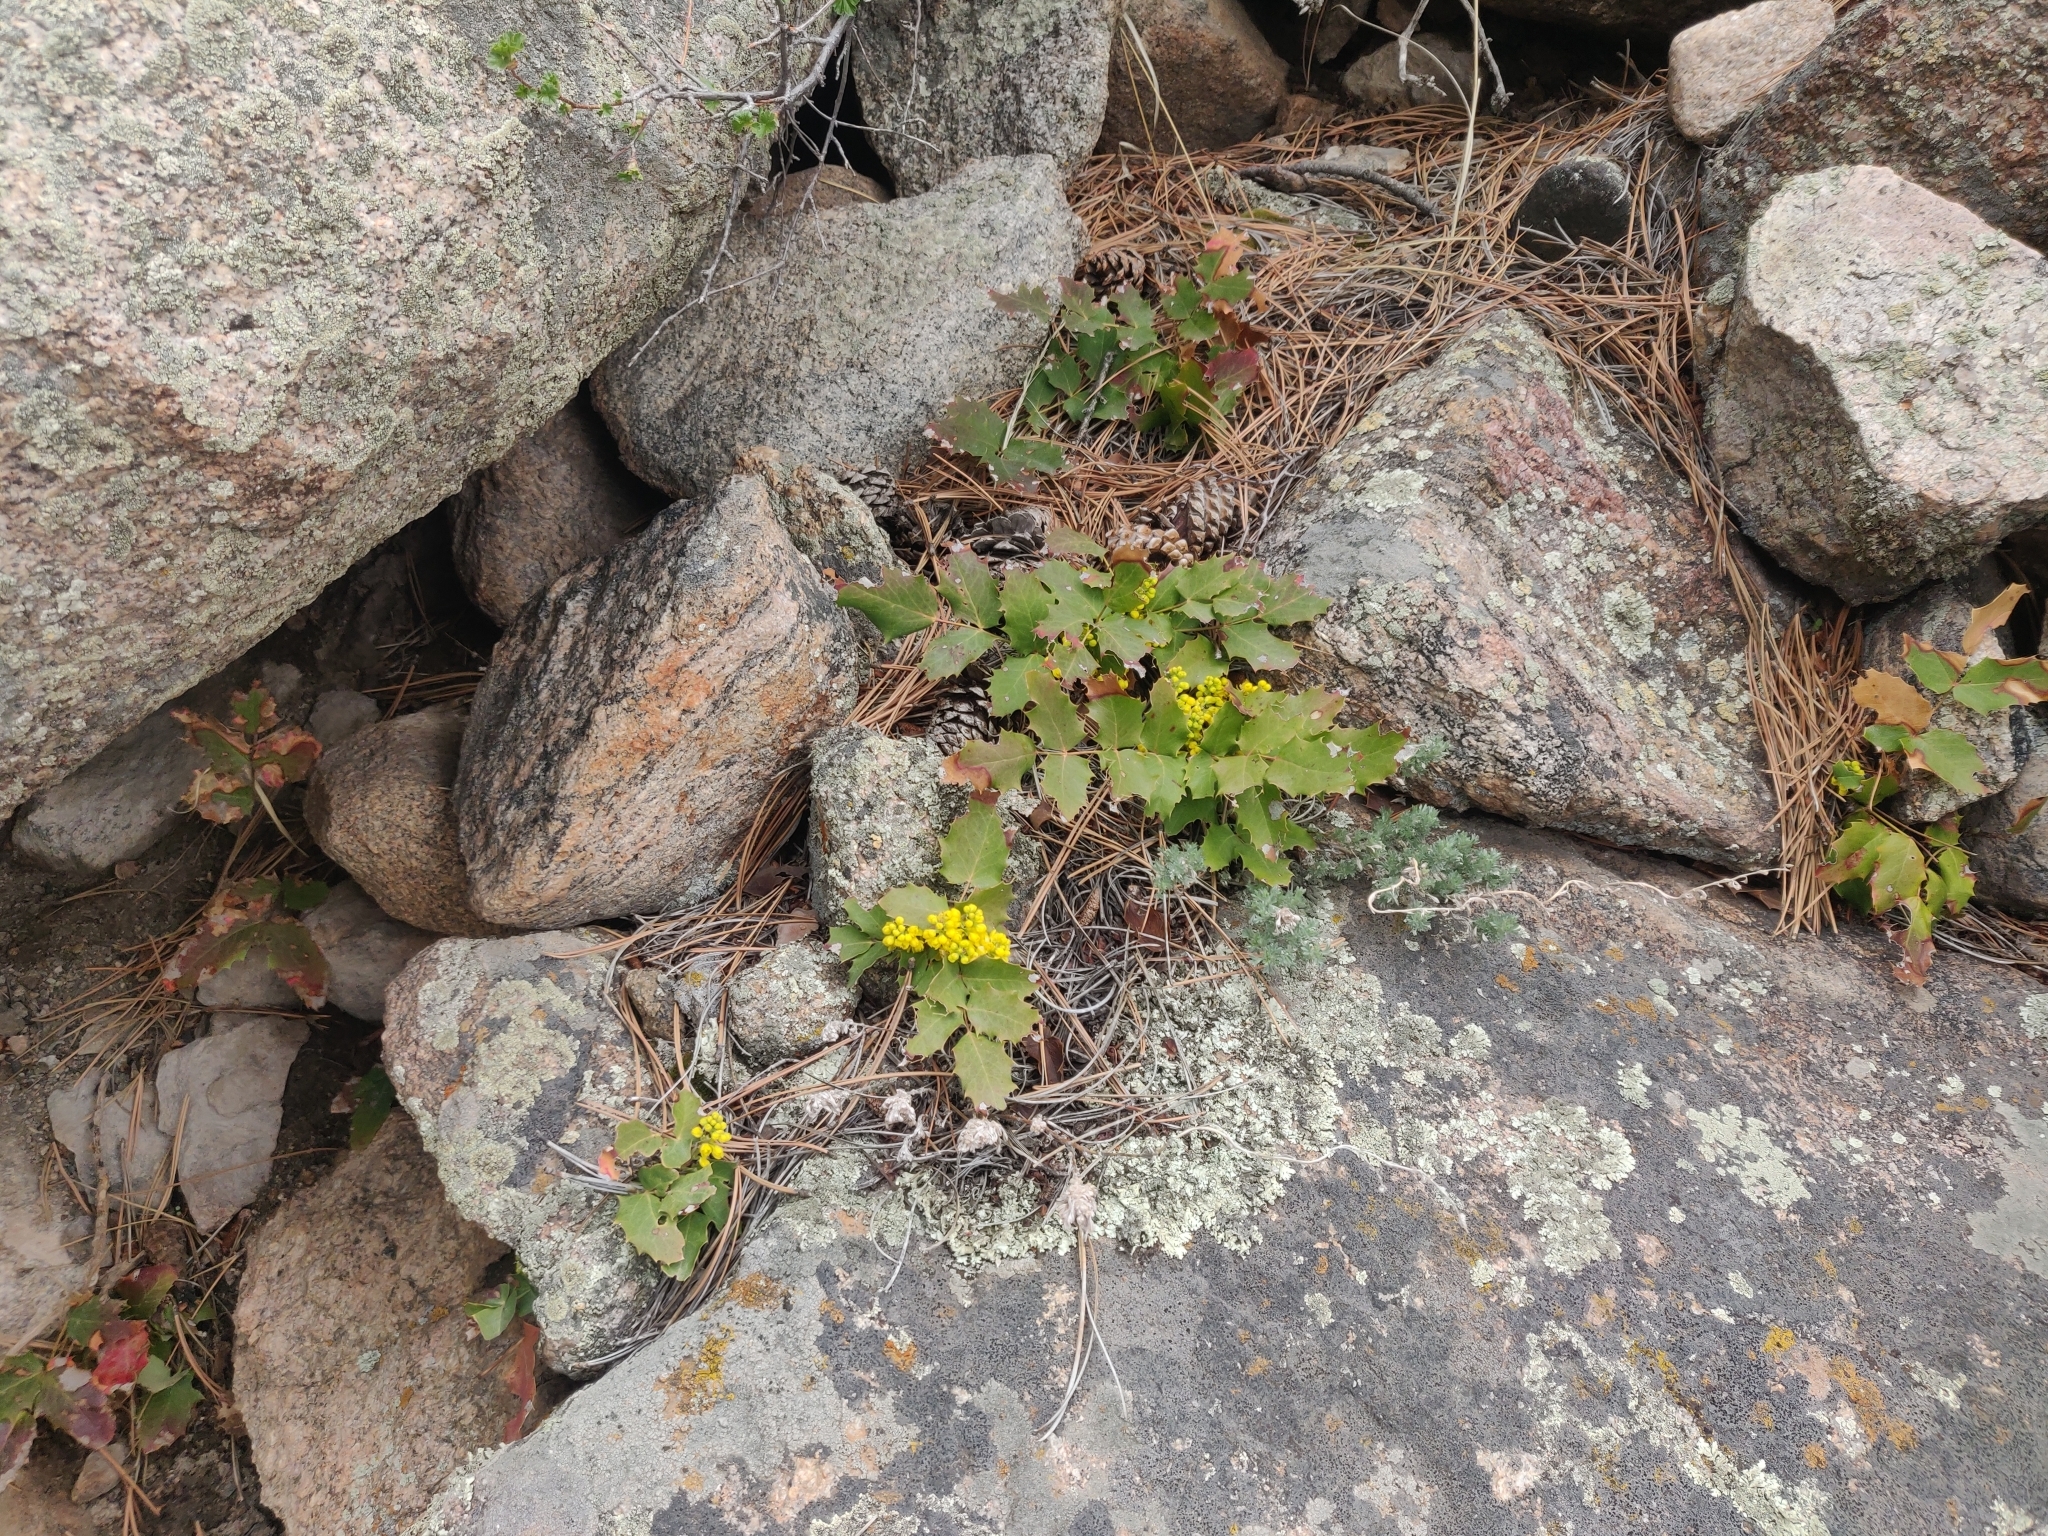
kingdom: Plantae
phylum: Tracheophyta
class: Magnoliopsida
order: Ranunculales
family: Berberidaceae
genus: Mahonia
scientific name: Mahonia repens
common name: Creeping oregon-grape
